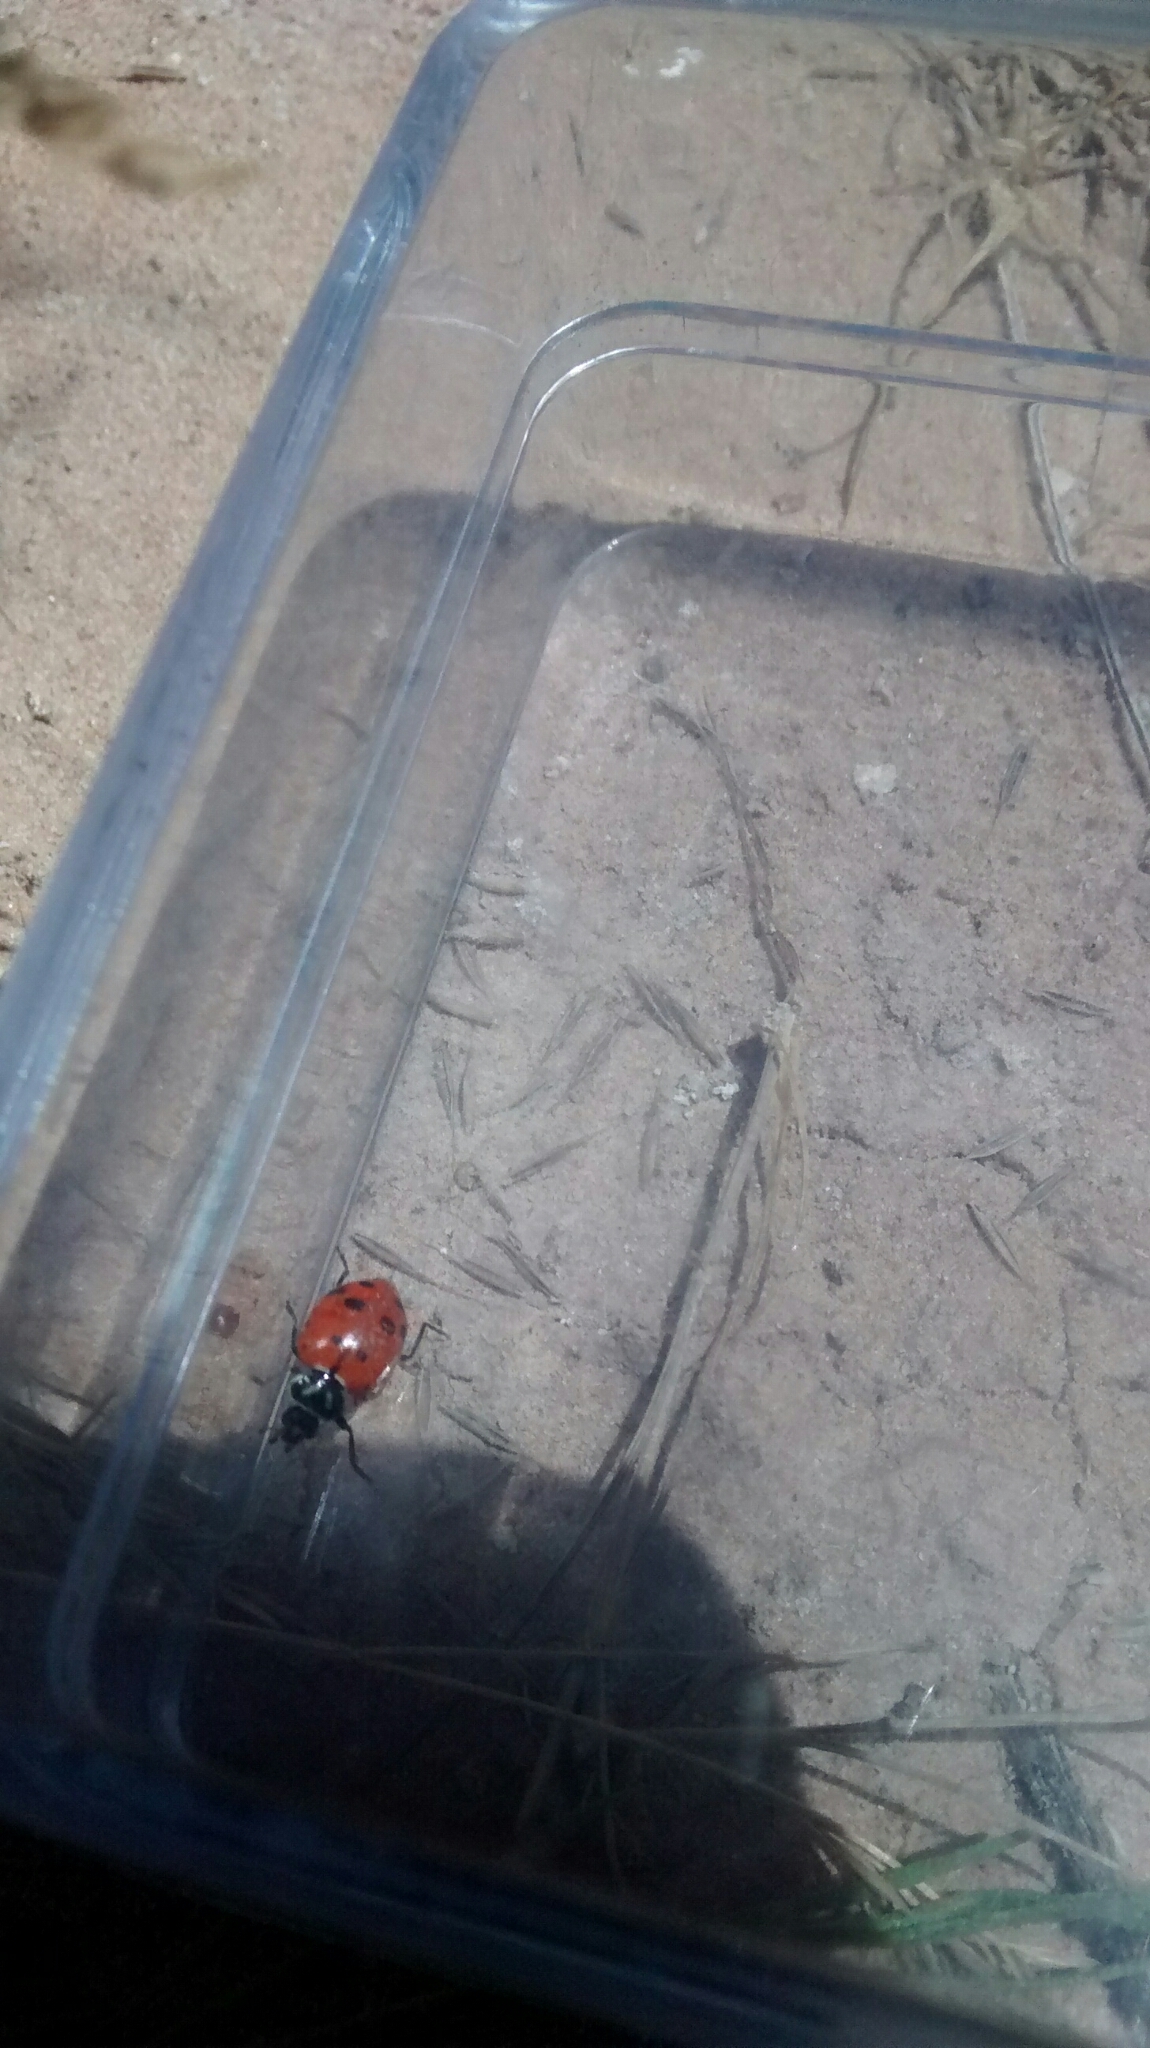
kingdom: Animalia
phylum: Arthropoda
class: Insecta
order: Coleoptera
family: Coccinellidae
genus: Hippodamia
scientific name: Hippodamia convergens
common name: Convergent lady beetle
